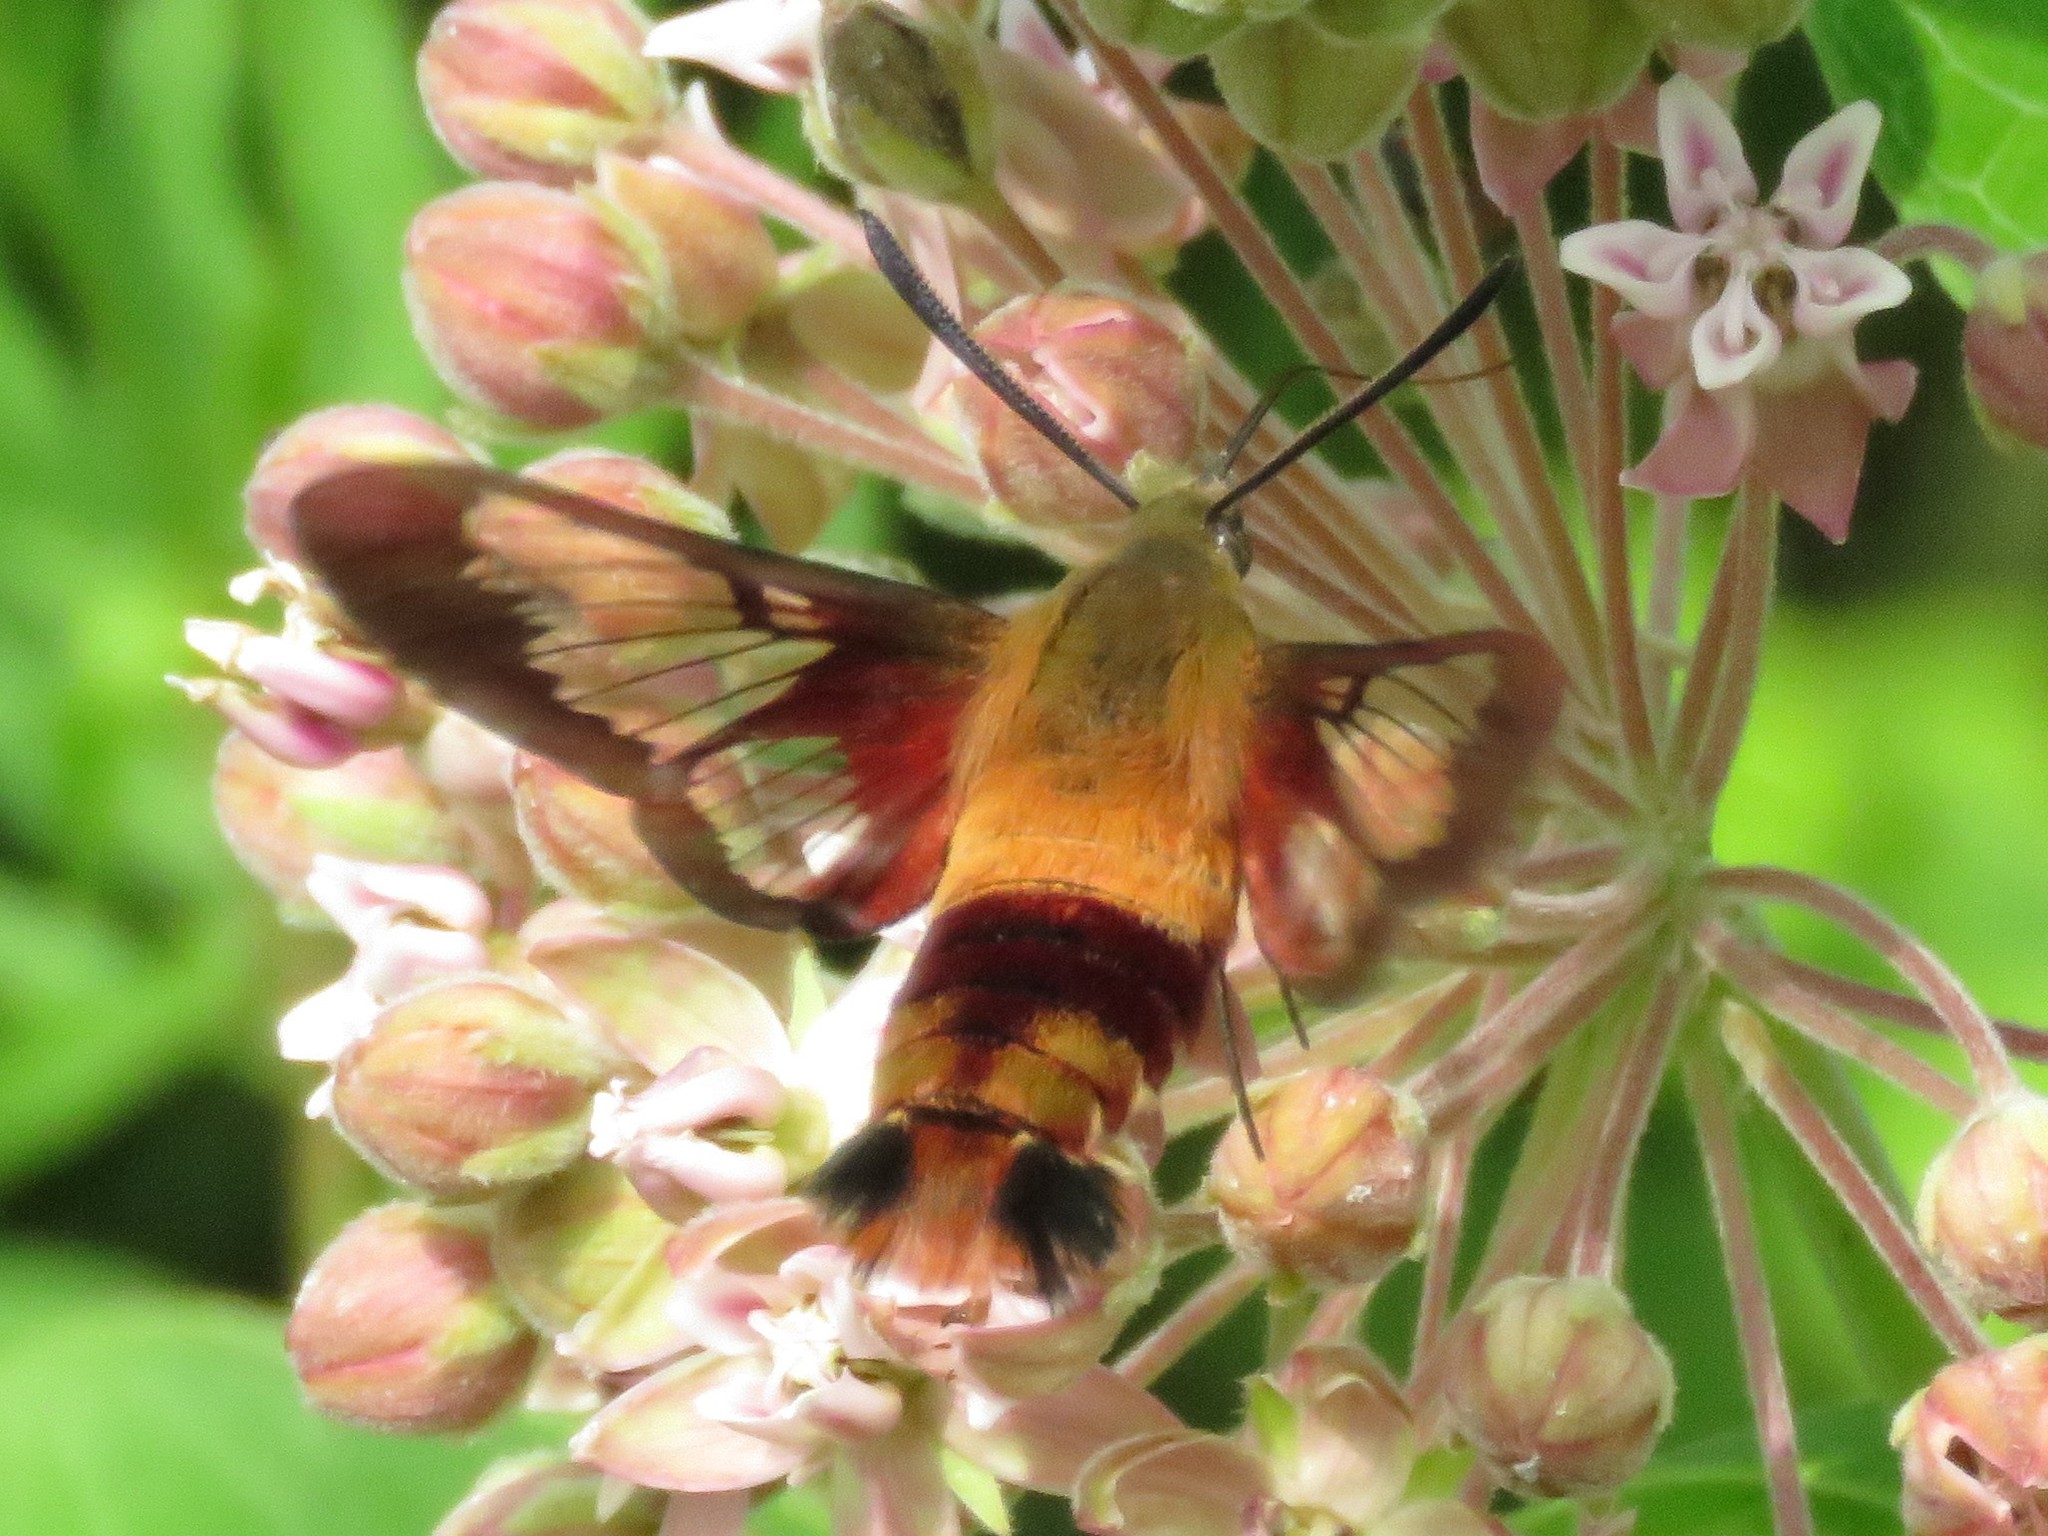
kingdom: Animalia
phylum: Arthropoda
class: Insecta
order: Lepidoptera
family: Sphingidae
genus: Hemaris
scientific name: Hemaris thysbe
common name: Common clear-wing
